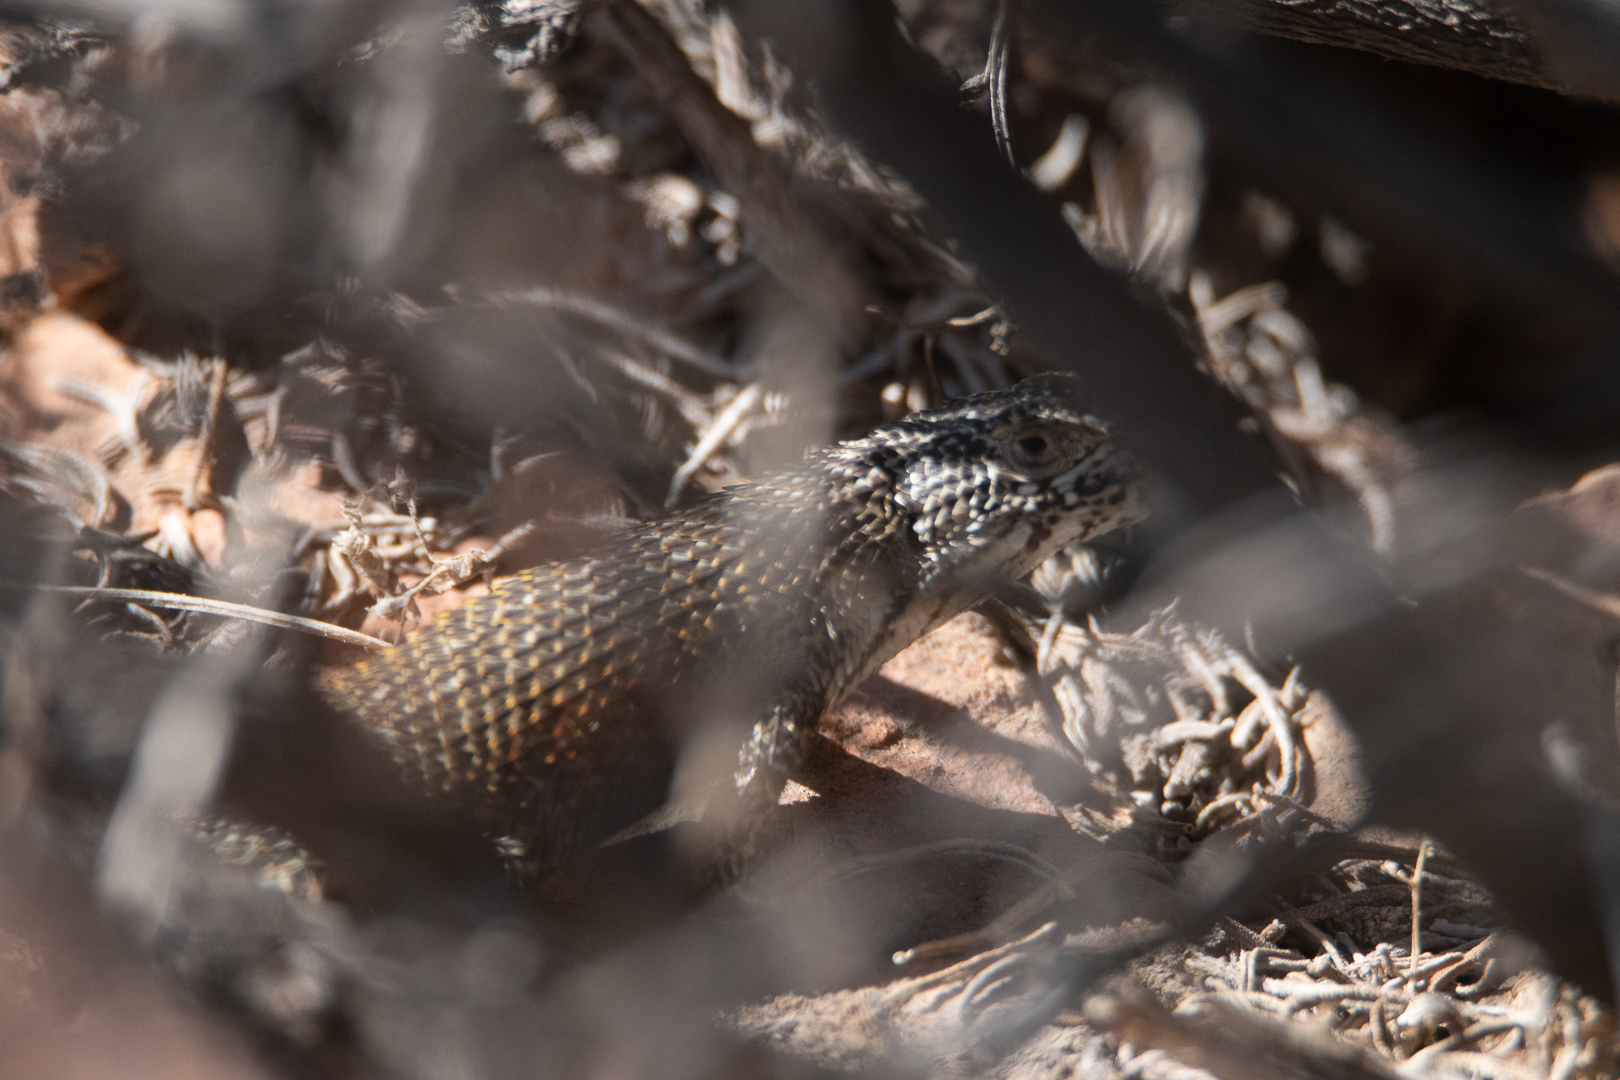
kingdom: Animalia
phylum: Chordata
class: Squamata
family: Liolaemidae
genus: Liolaemus
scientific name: Liolaemus nitidus
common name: Shining tree iguana
